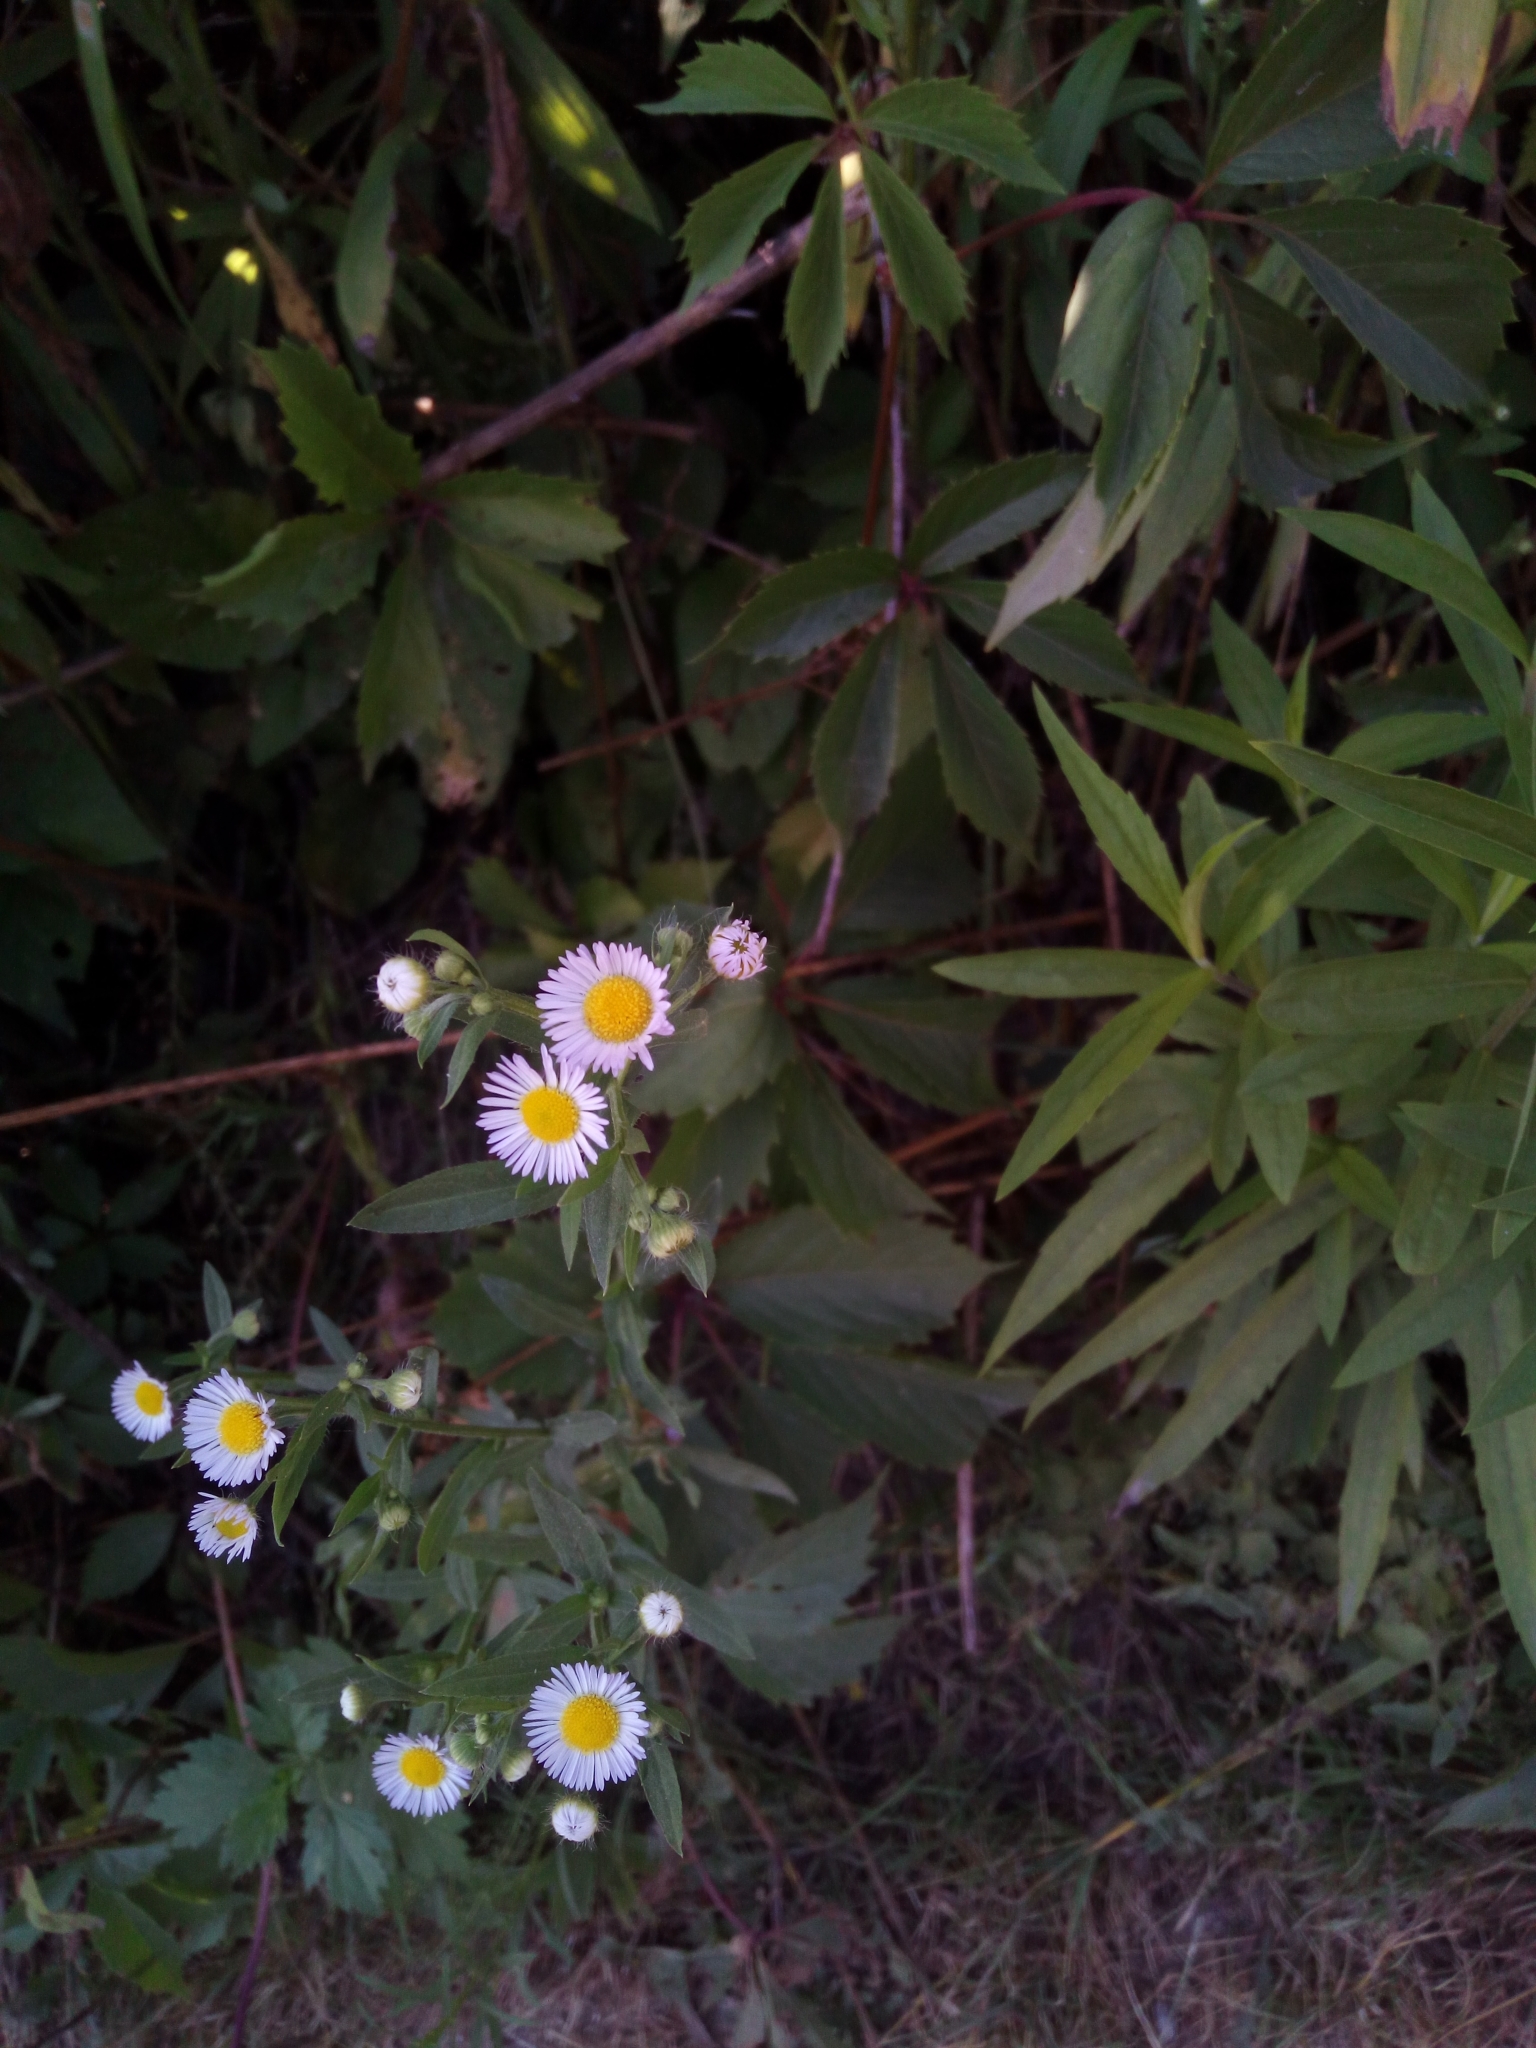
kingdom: Plantae
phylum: Tracheophyta
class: Magnoliopsida
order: Asterales
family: Asteraceae
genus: Erigeron
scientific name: Erigeron annuus
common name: Tall fleabane
